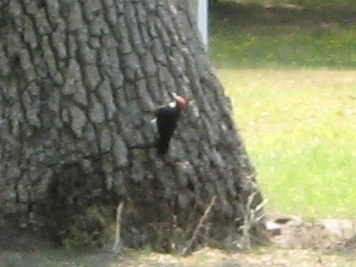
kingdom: Animalia
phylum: Chordata
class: Aves
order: Piciformes
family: Picidae
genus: Melanerpes
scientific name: Melanerpes formicivorus
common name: Acorn woodpecker
